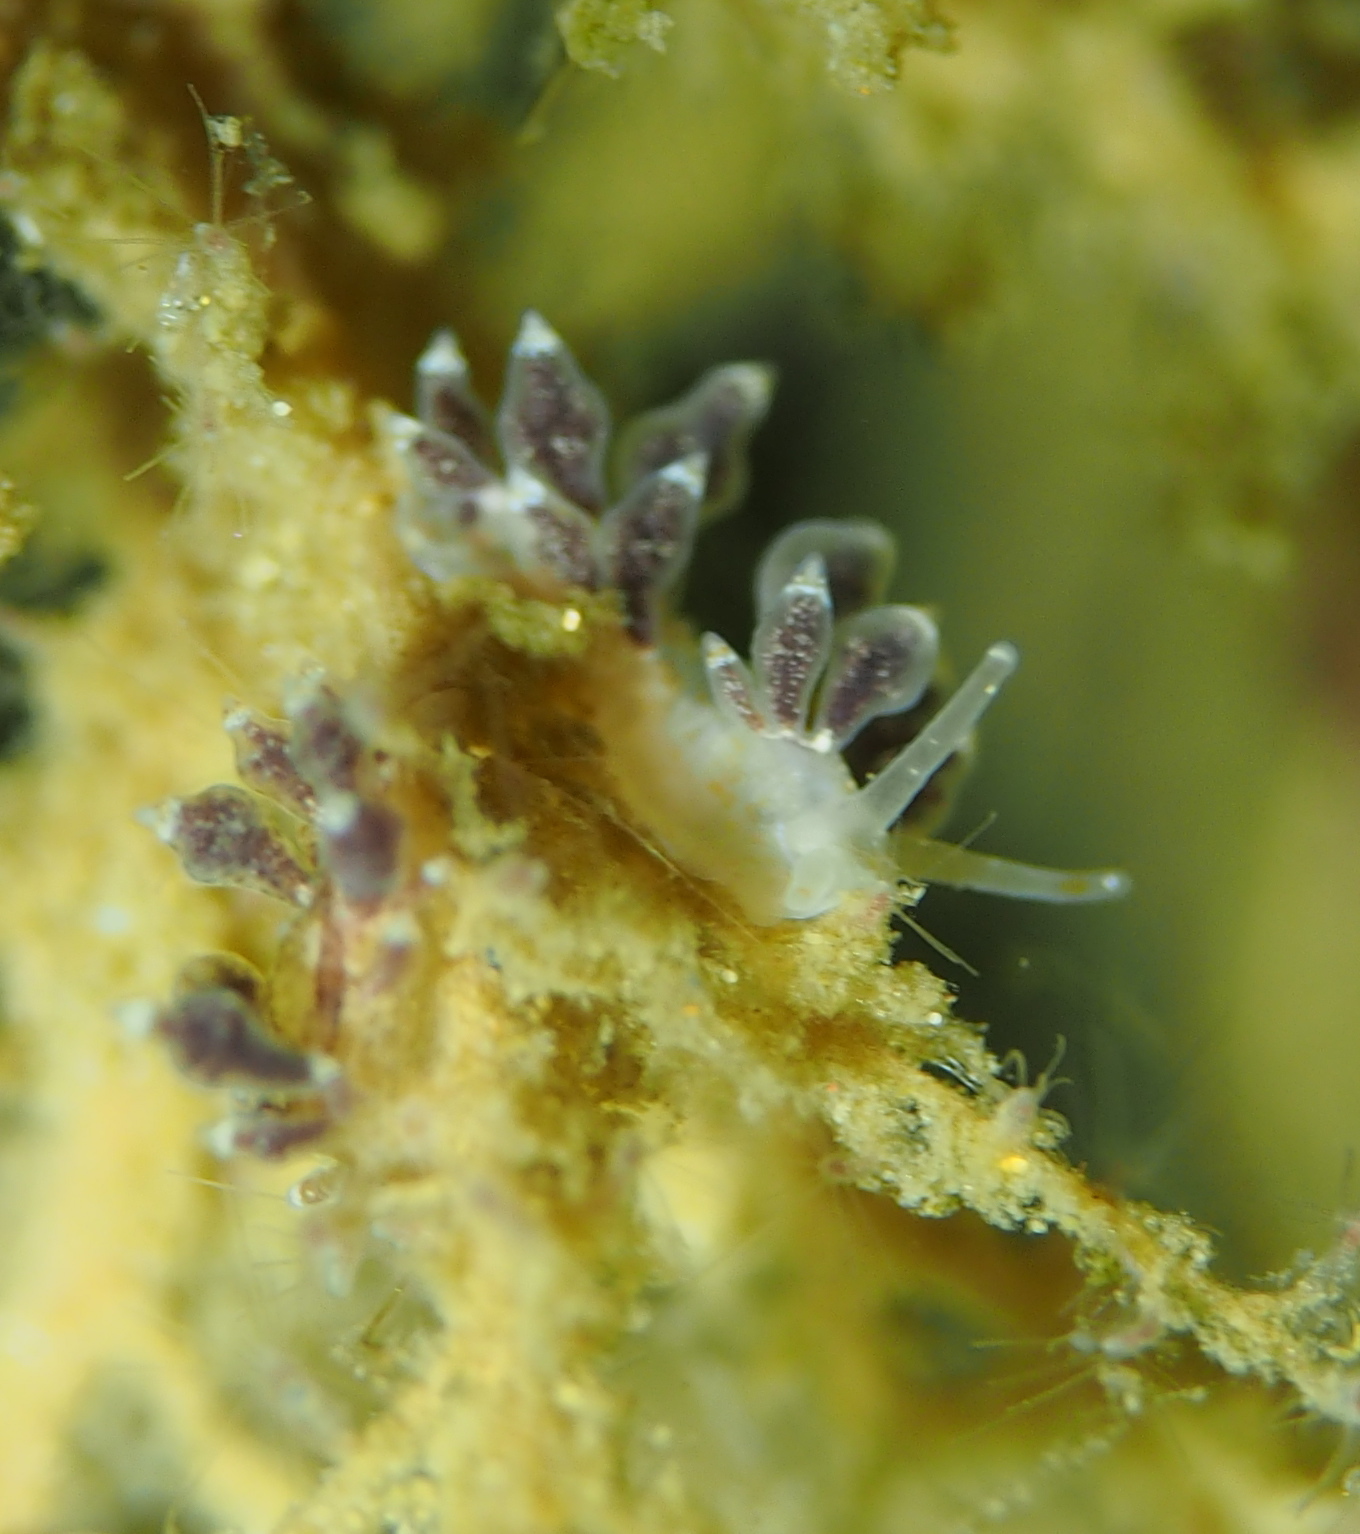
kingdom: Animalia
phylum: Mollusca
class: Gastropoda
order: Nudibranchia
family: Eubranchidae
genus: Eubranchus
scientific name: Eubranchus exiguus
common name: Balloon aeolis
